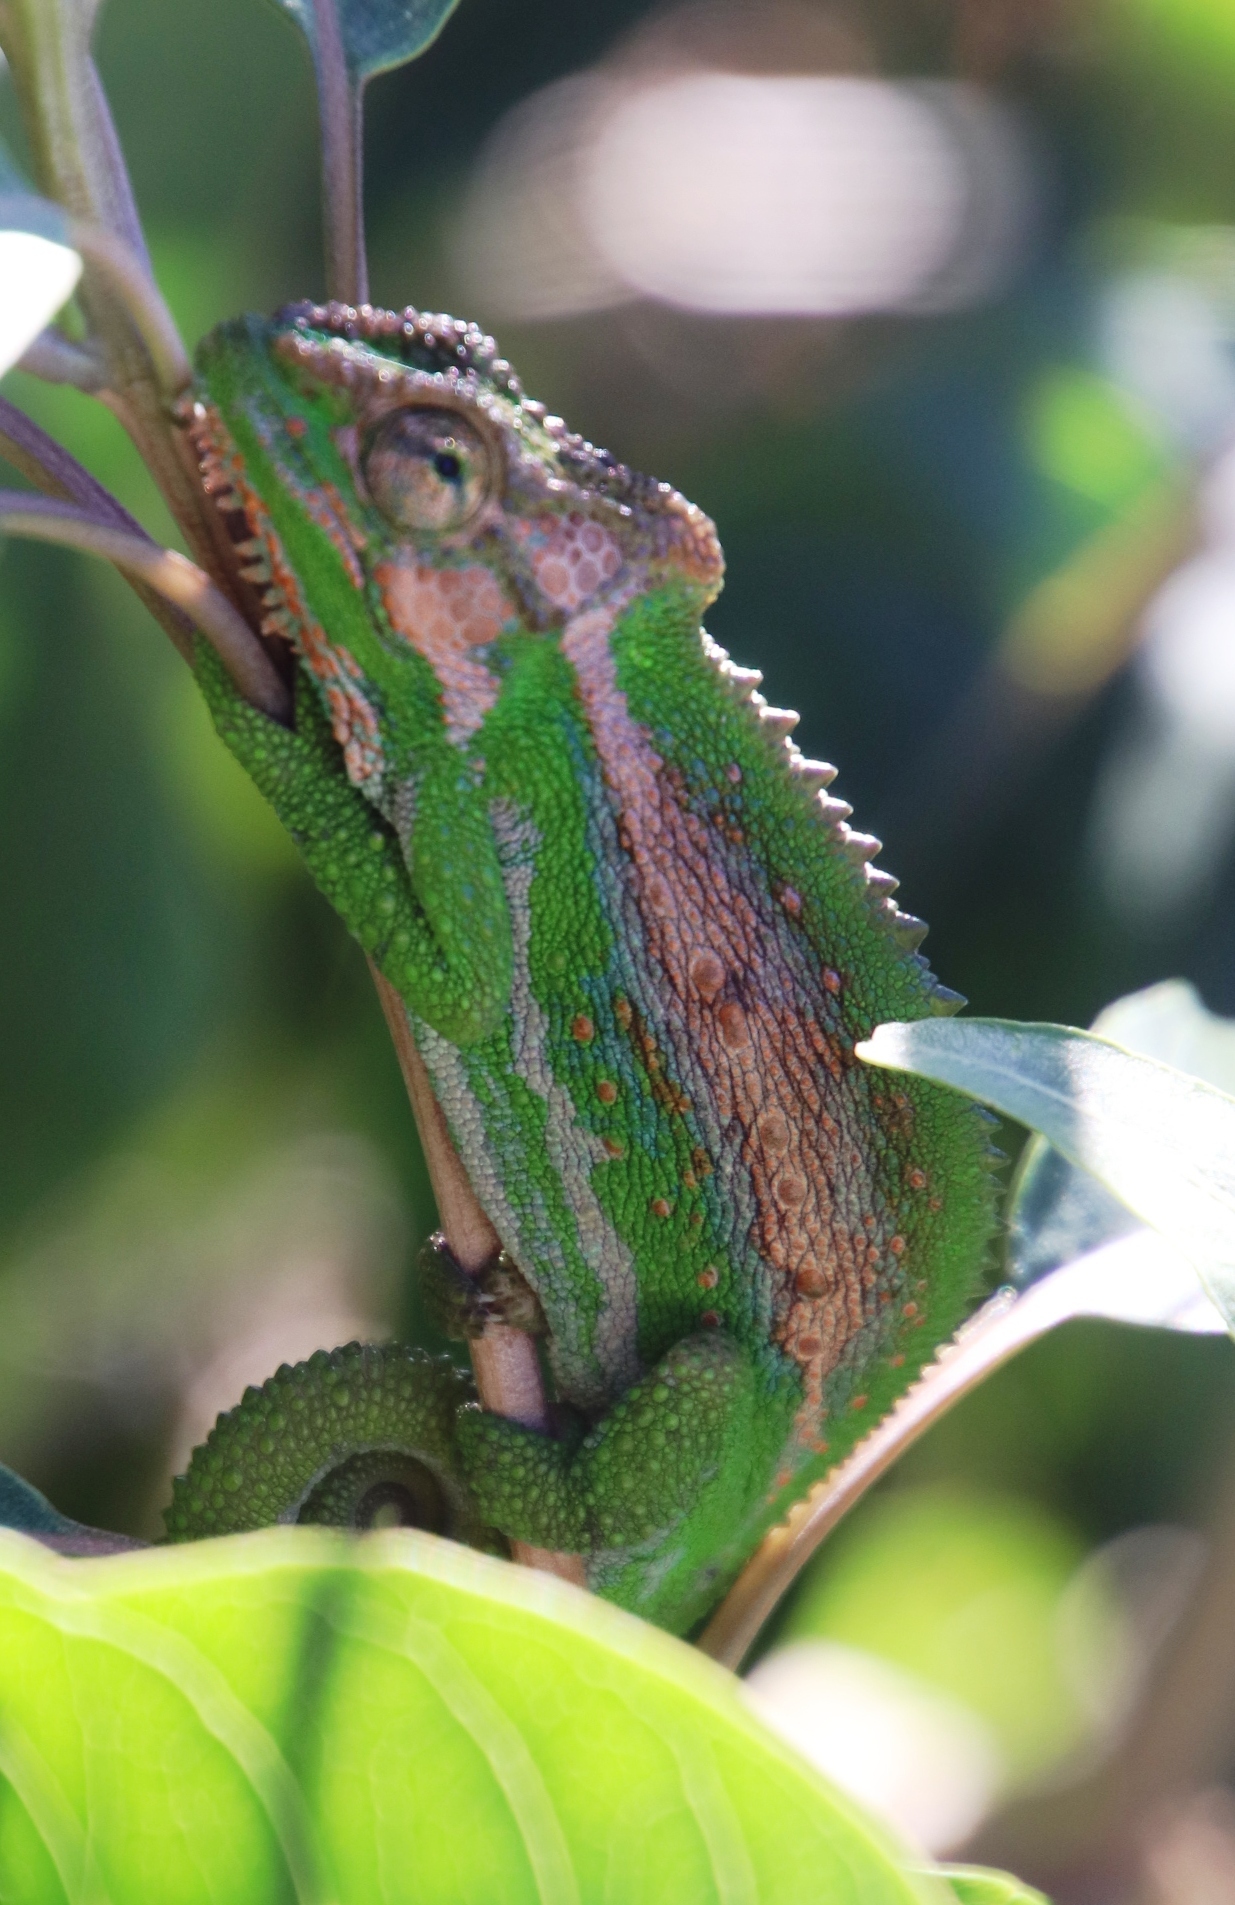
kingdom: Animalia
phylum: Chordata
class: Squamata
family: Chamaeleonidae
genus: Bradypodion
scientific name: Bradypodion pumilum
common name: Cape dwarf chameleon
